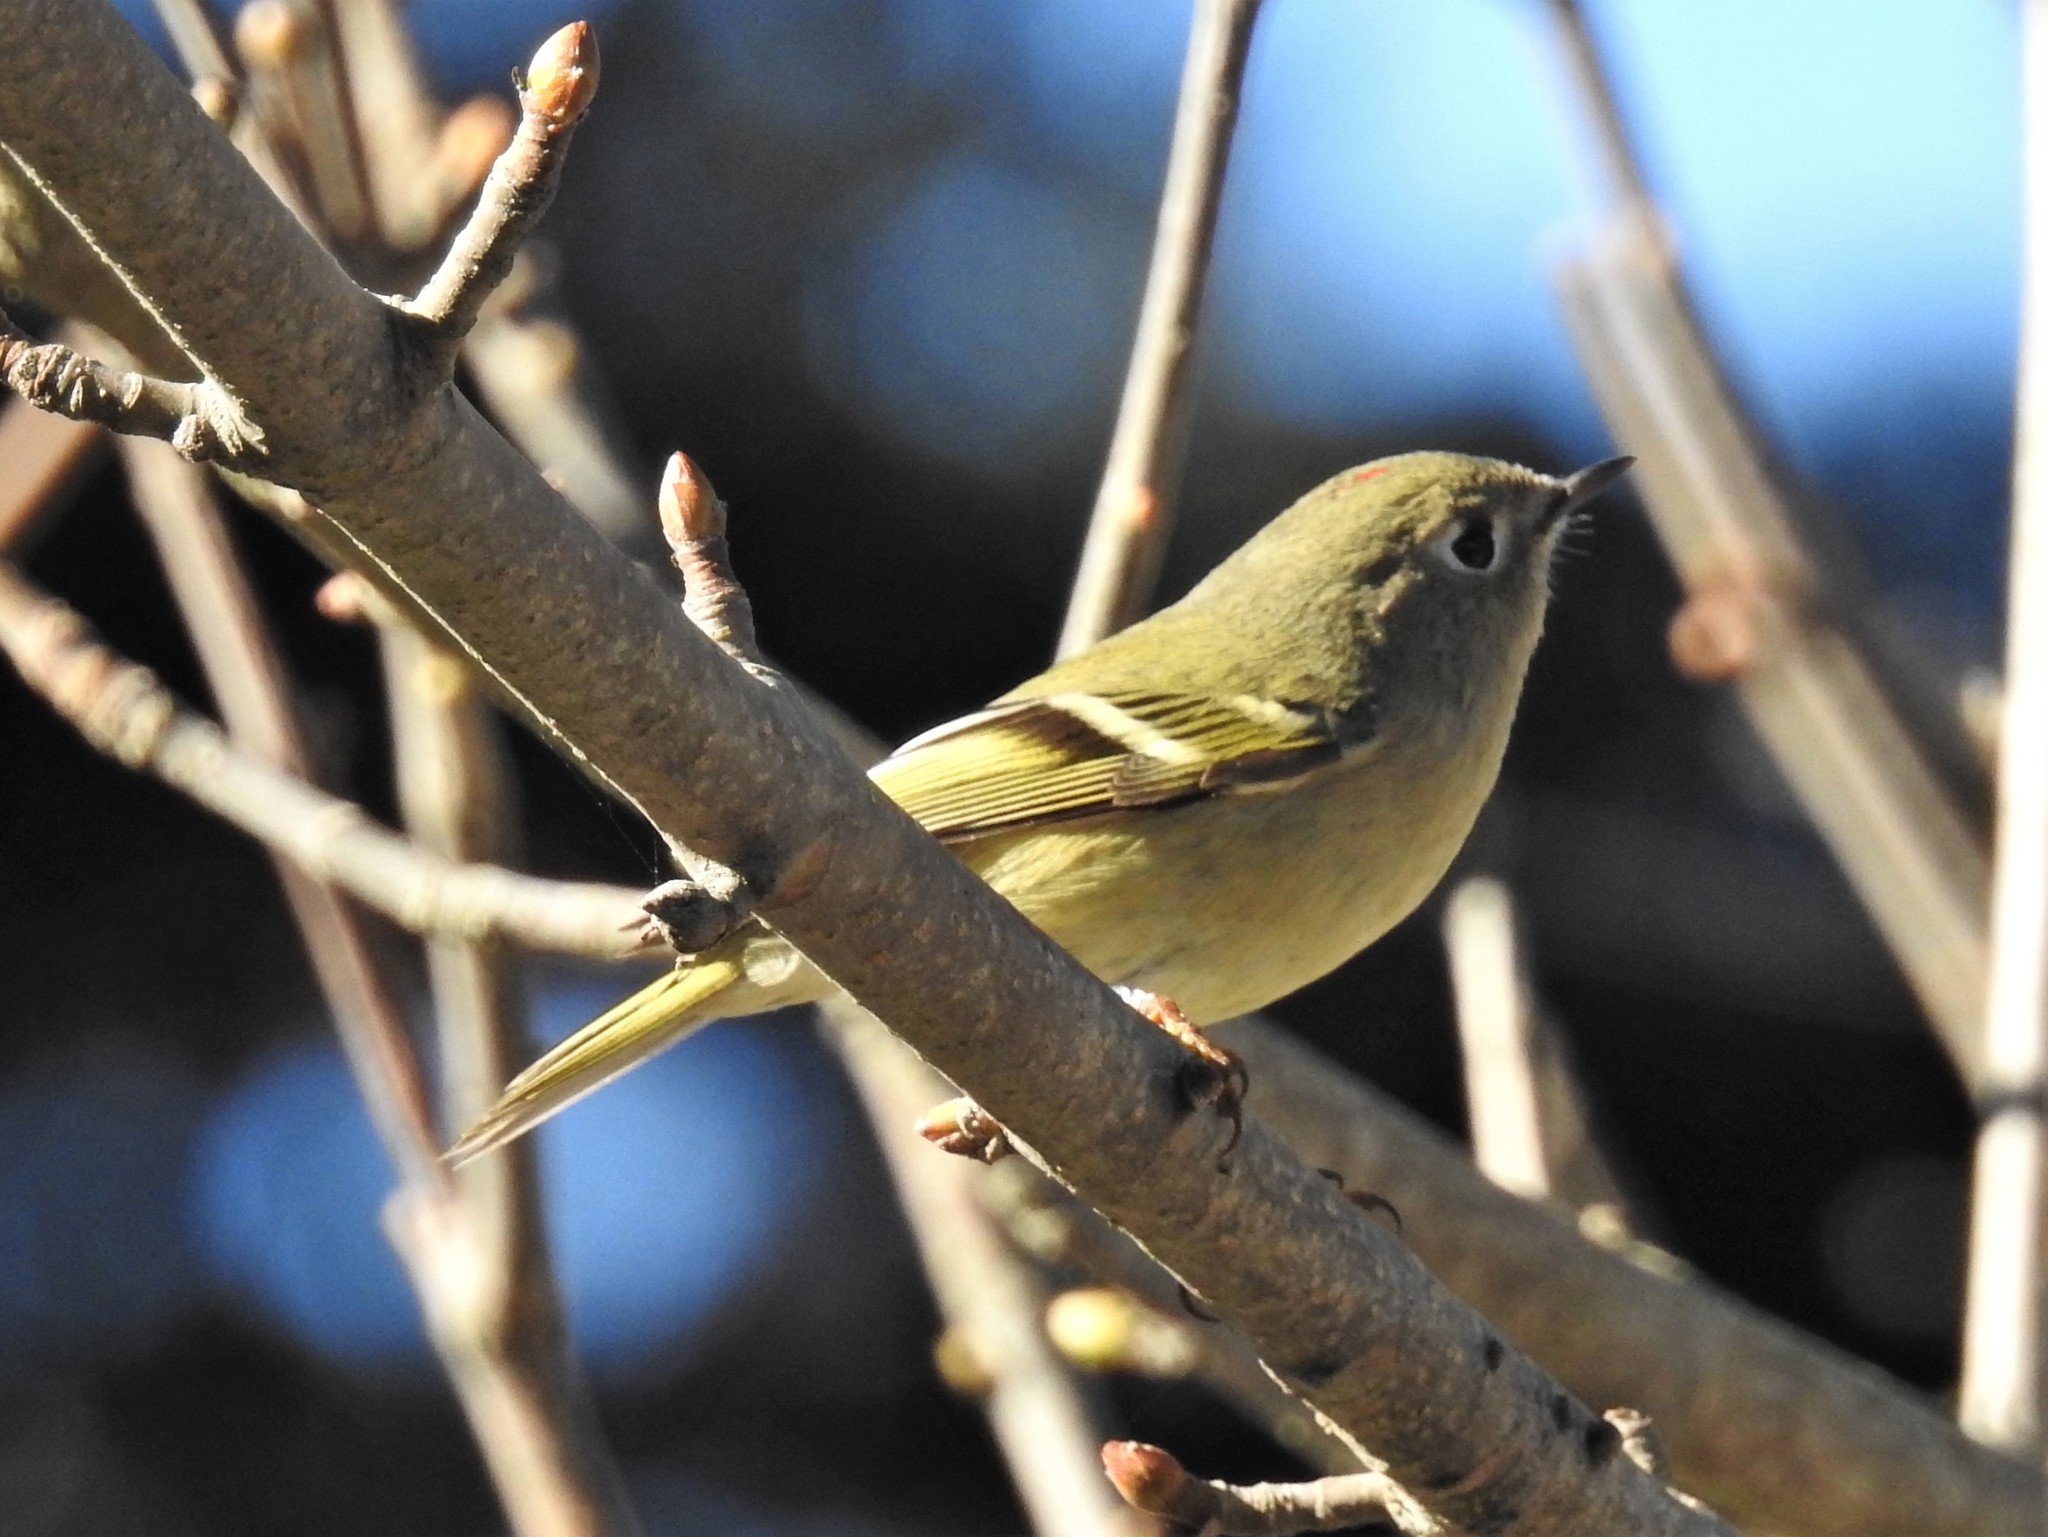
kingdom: Animalia
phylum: Chordata
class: Aves
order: Passeriformes
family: Regulidae
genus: Regulus
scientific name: Regulus calendula
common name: Ruby-crowned kinglet
